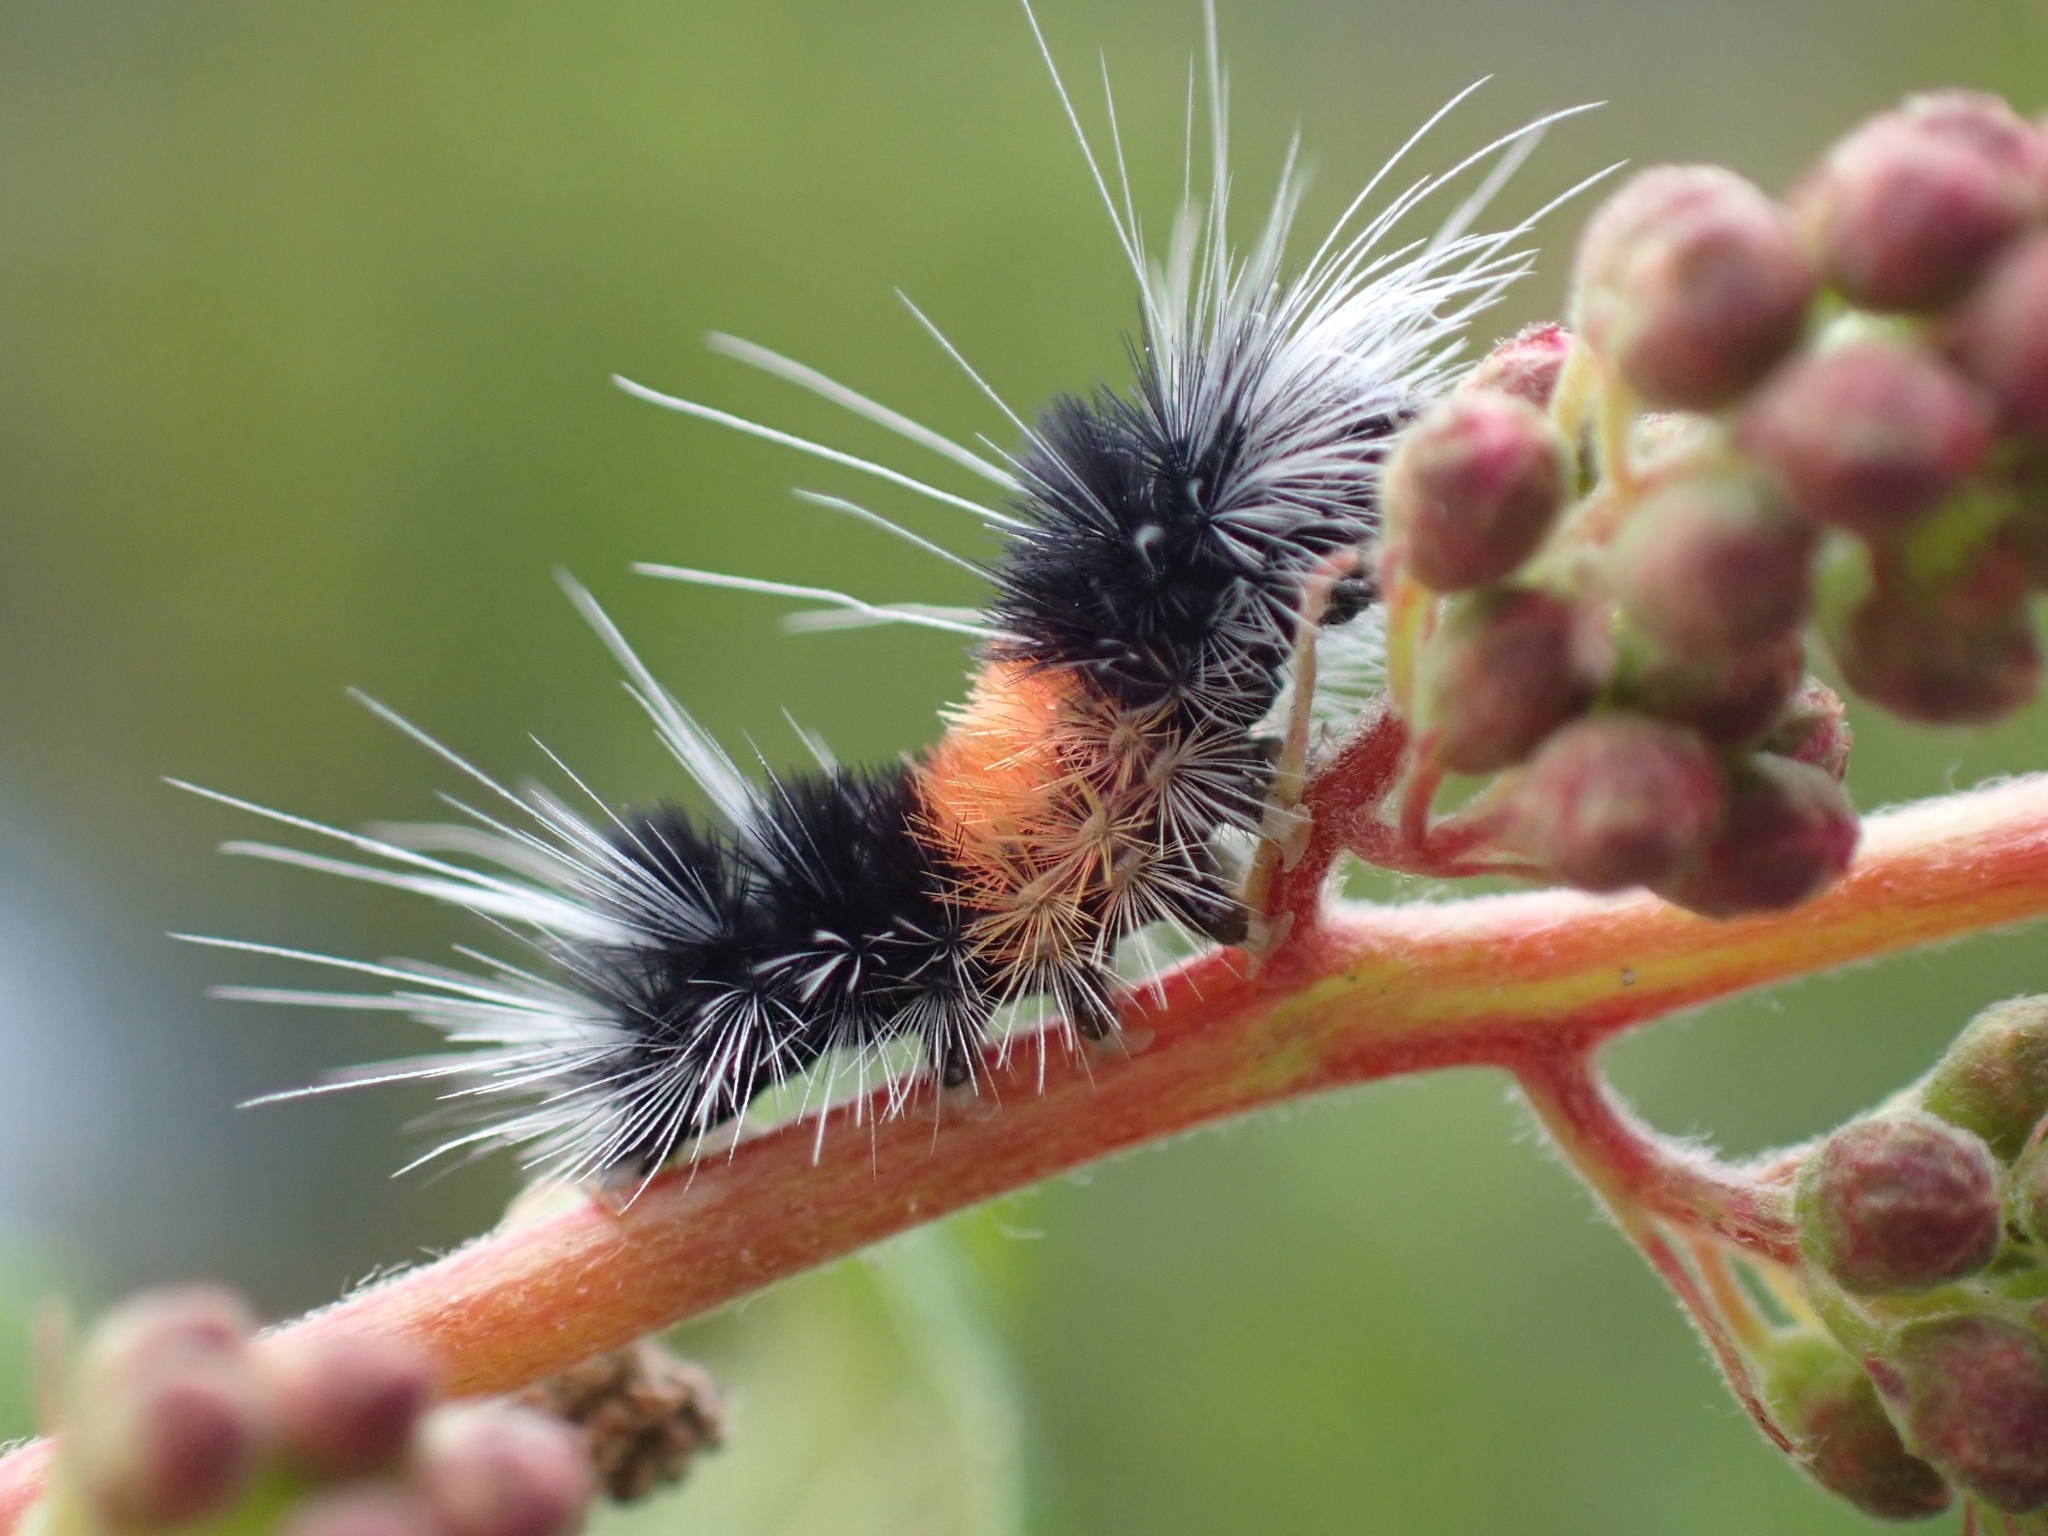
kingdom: Animalia
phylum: Arthropoda
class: Insecta
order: Lepidoptera
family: Erebidae
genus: Lophocampa
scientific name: Lophocampa maculata
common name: Spotted tussock moth
